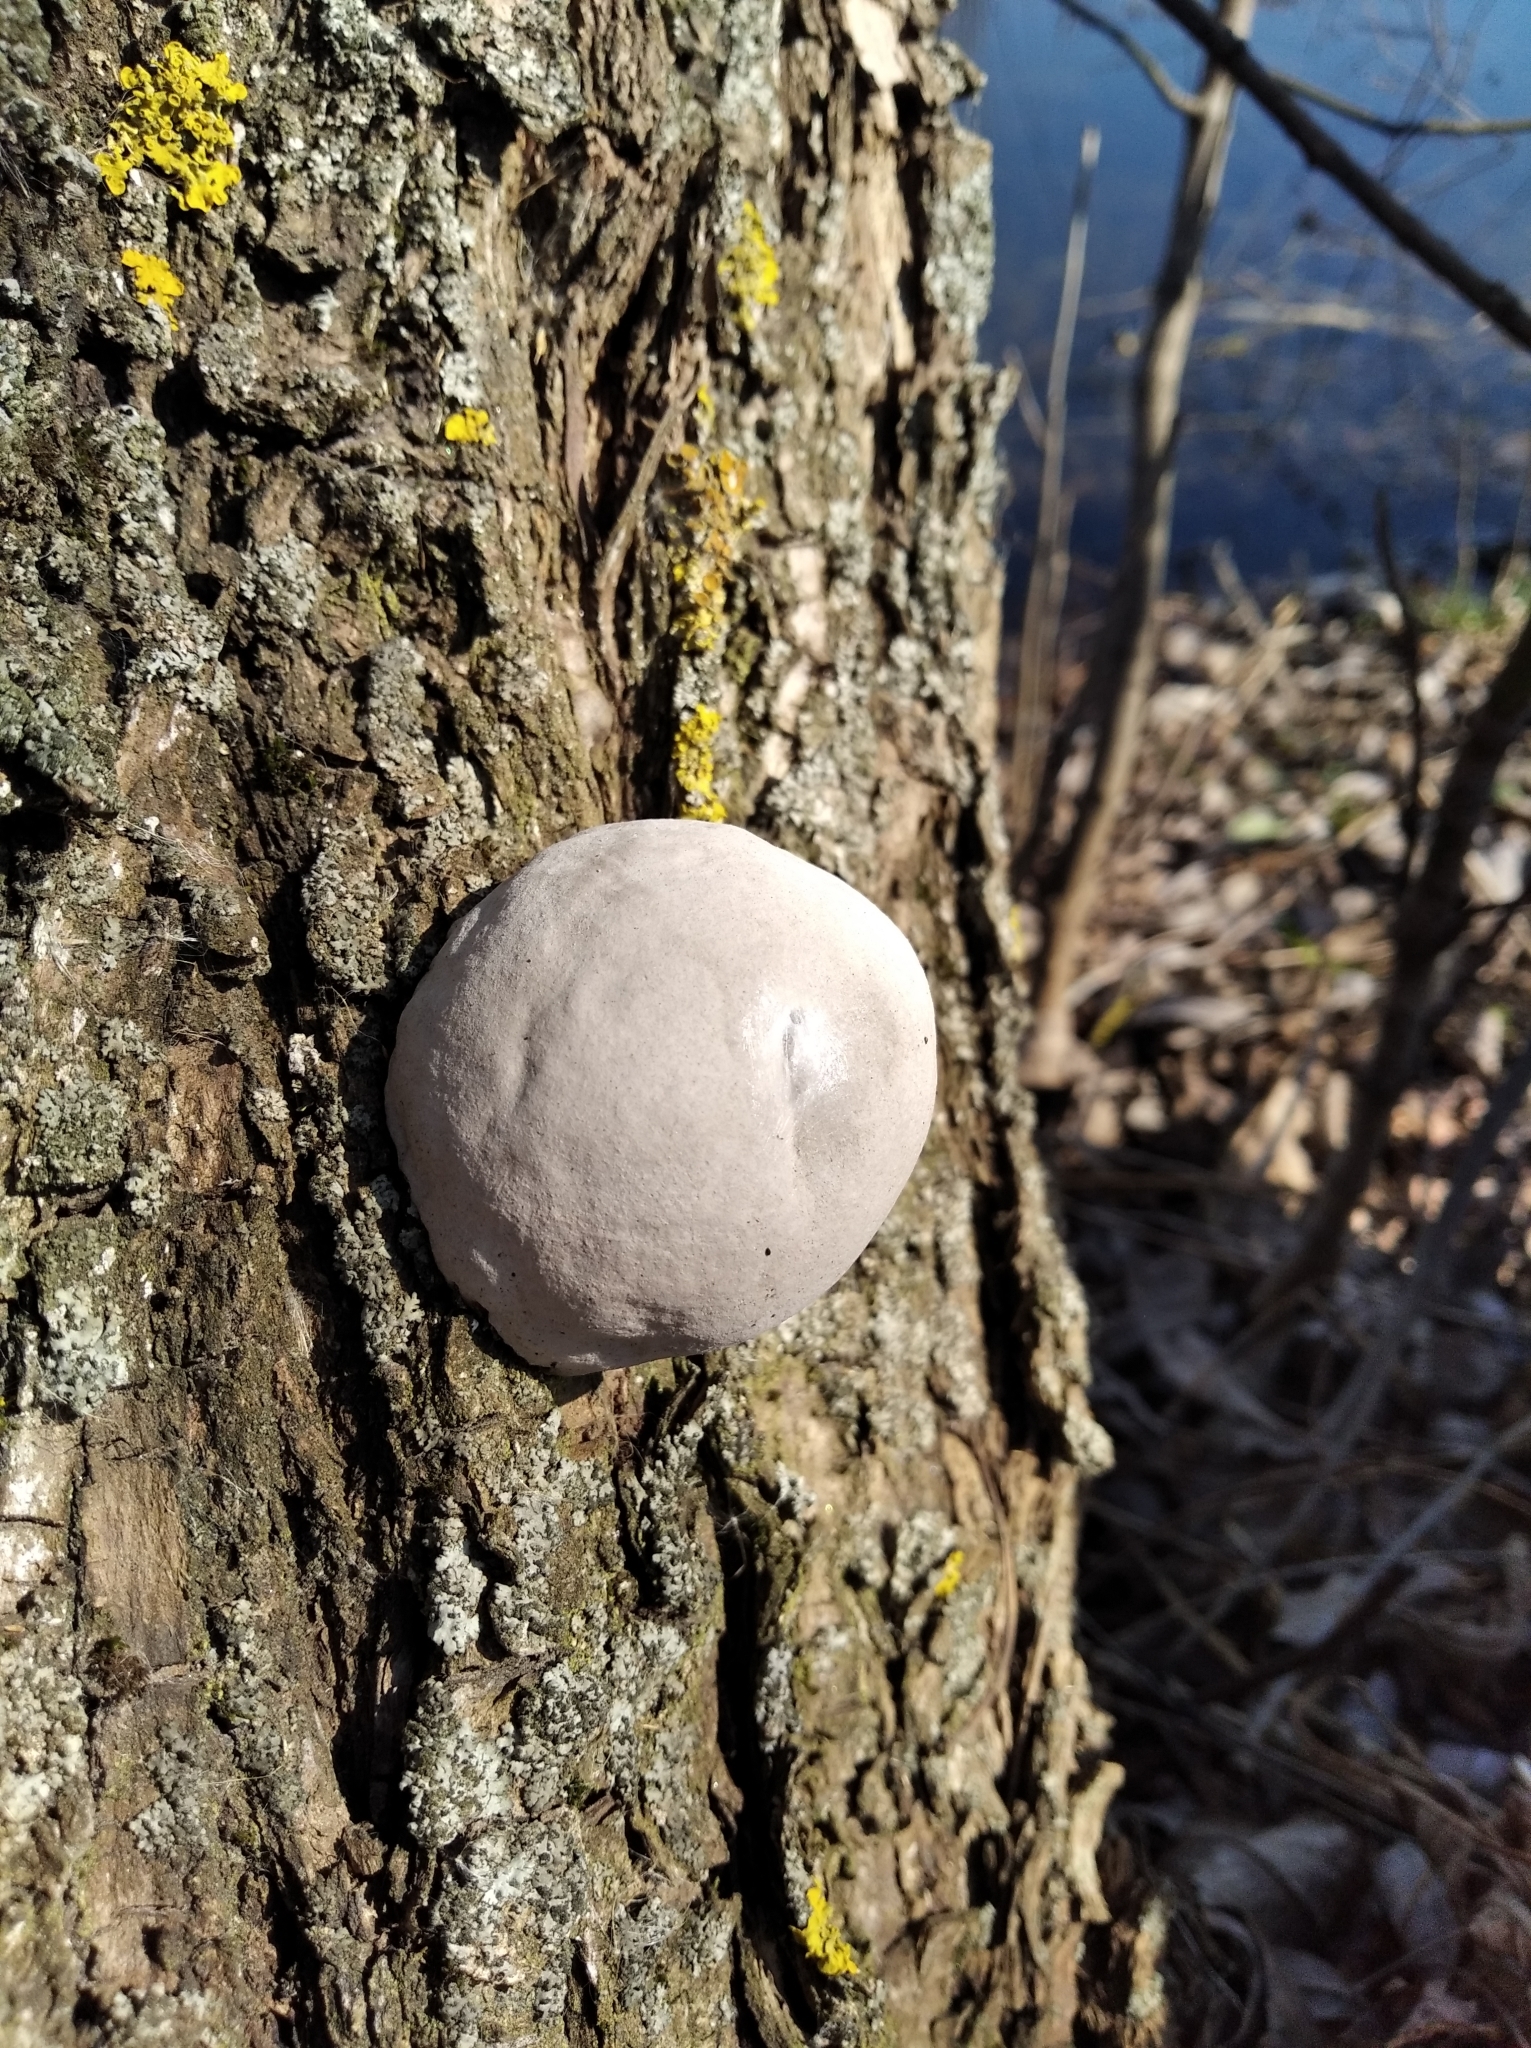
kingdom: Fungi
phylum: Basidiomycota
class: Agaricomycetes
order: Polyporales
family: Polyporaceae
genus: Fomes
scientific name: Fomes fomentarius
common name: Hoof fungus
